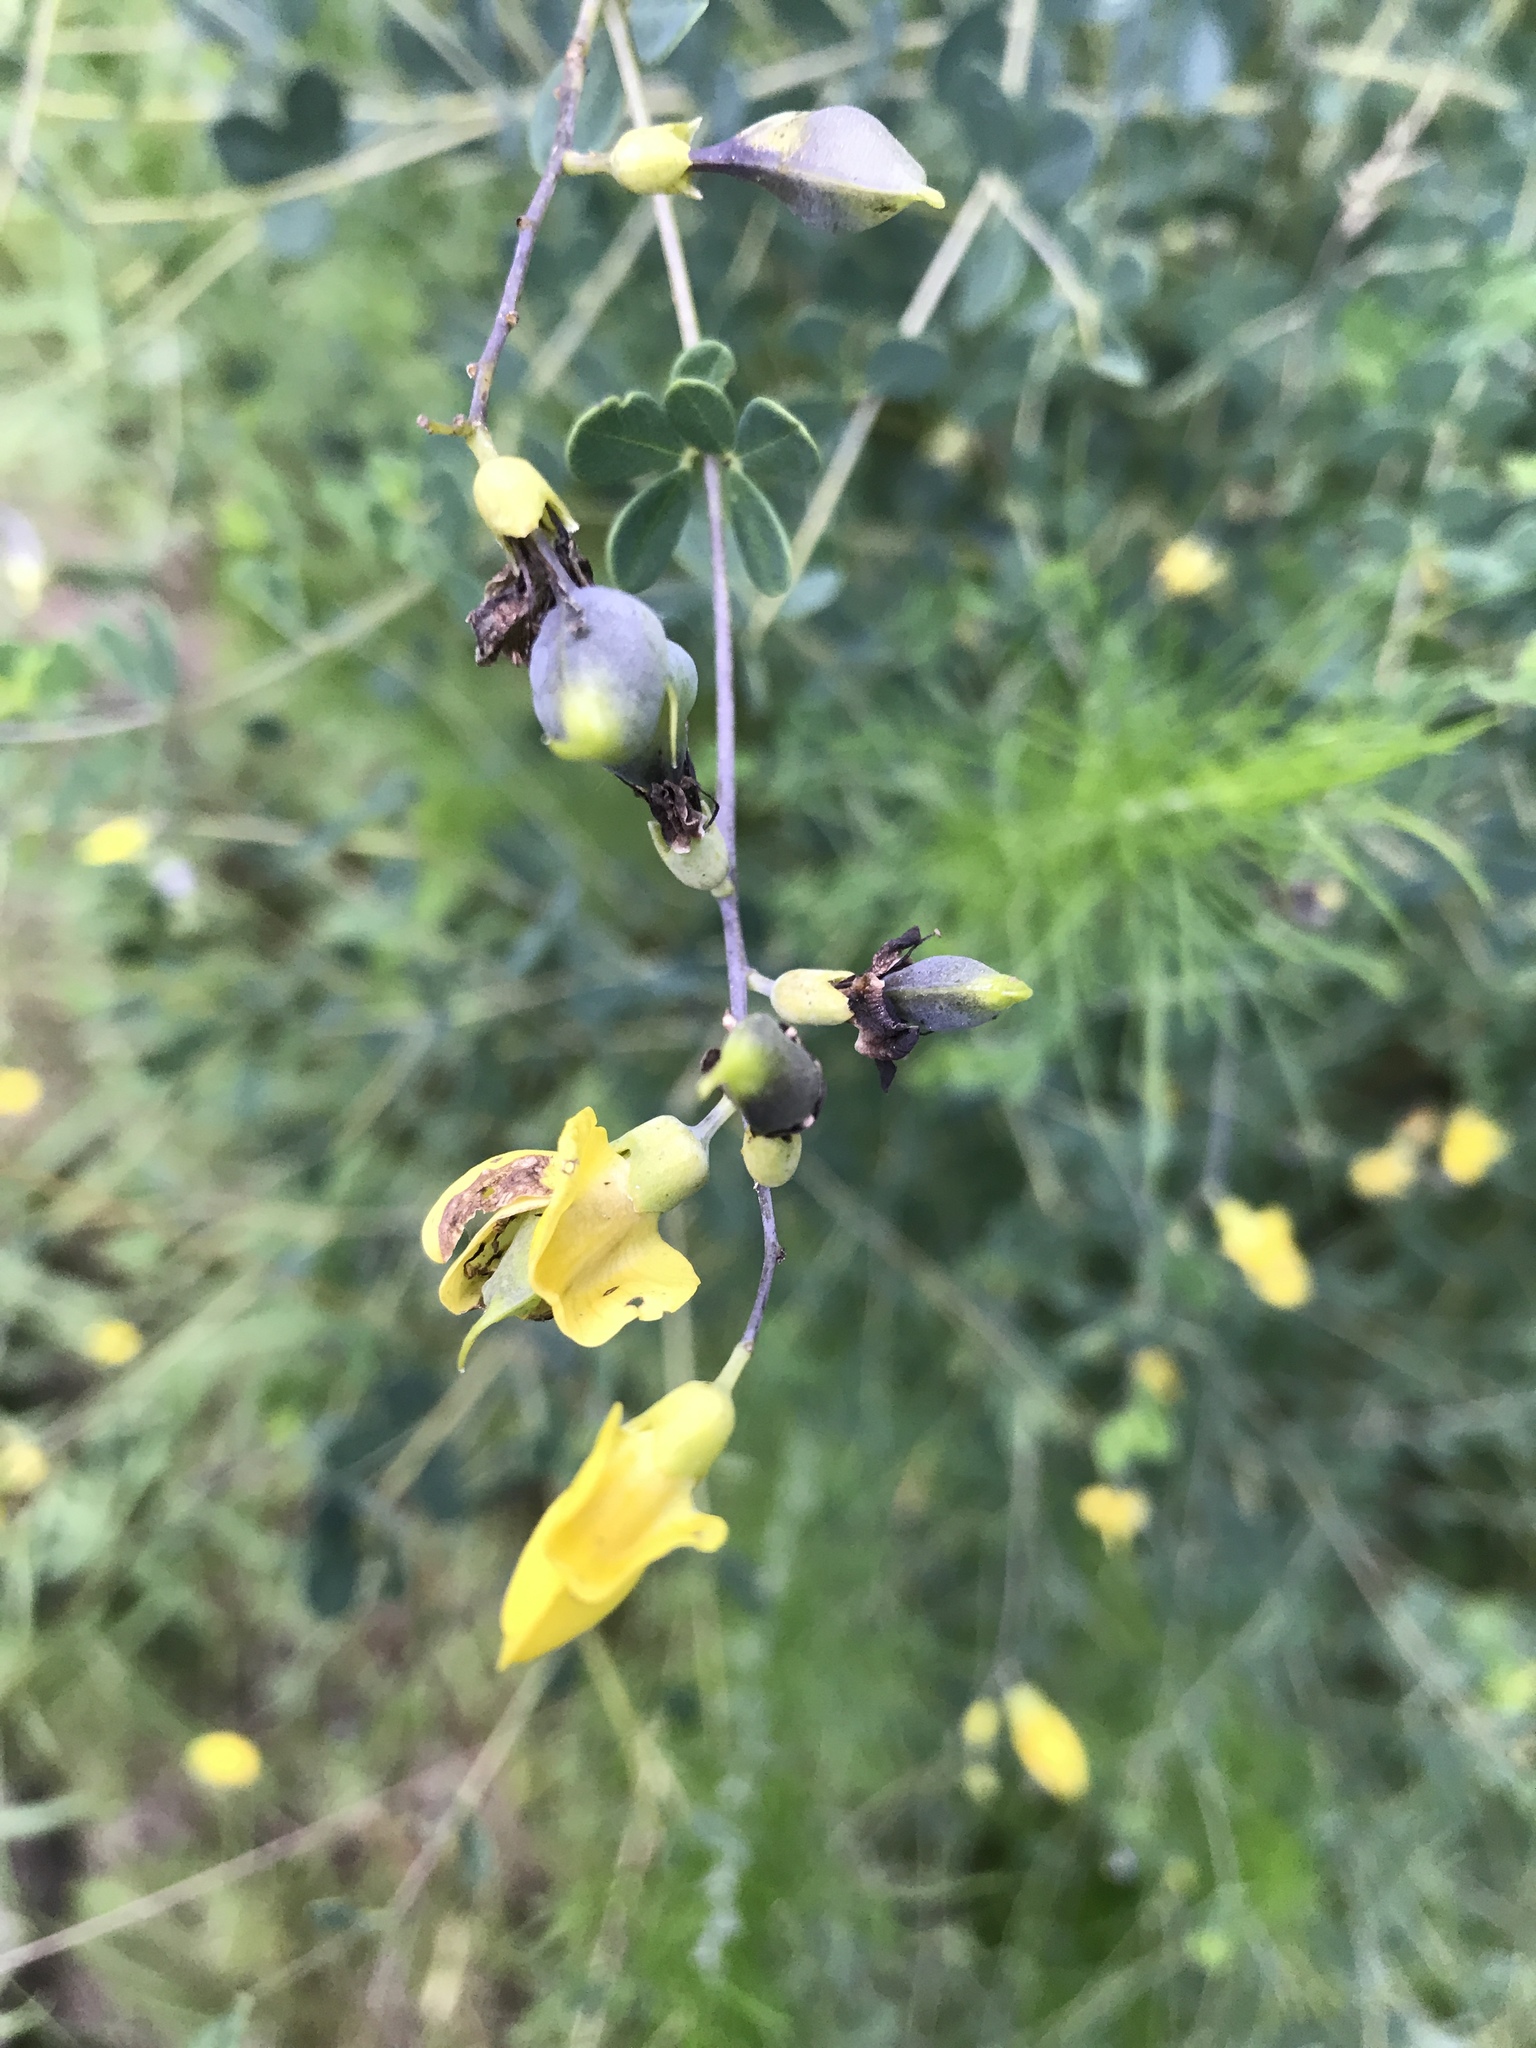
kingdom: Plantae
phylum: Tracheophyta
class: Magnoliopsida
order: Fabales
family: Fabaceae
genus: Baptisia
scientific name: Baptisia tinctoria
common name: Wild indigo
